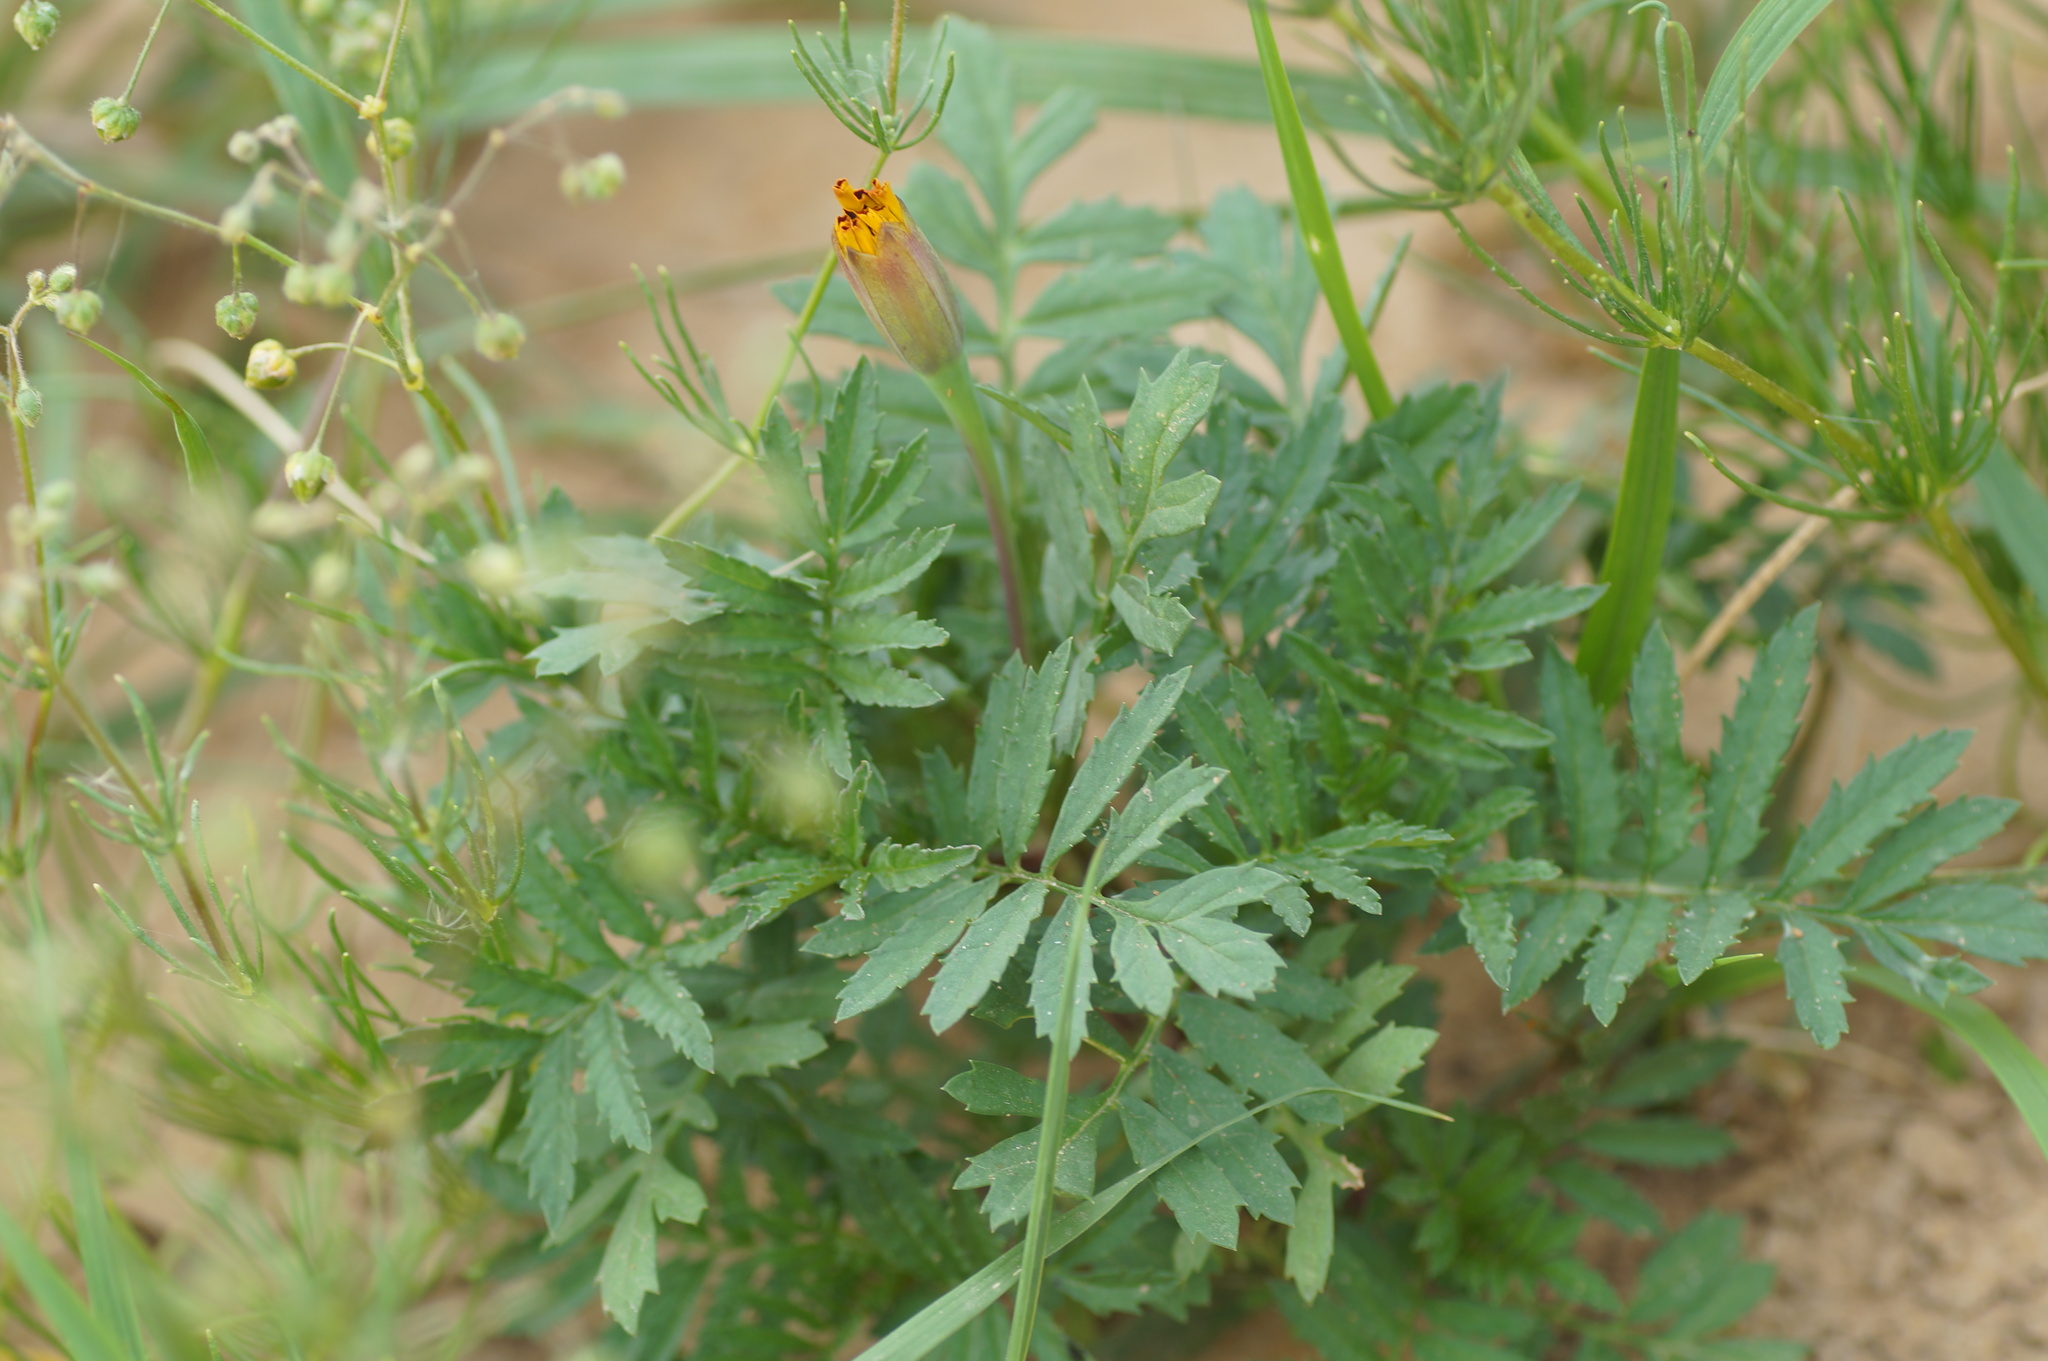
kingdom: Plantae
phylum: Tracheophyta
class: Magnoliopsida
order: Asterales
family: Asteraceae
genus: Tagetes
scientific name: Tagetes erecta
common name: African marigold
